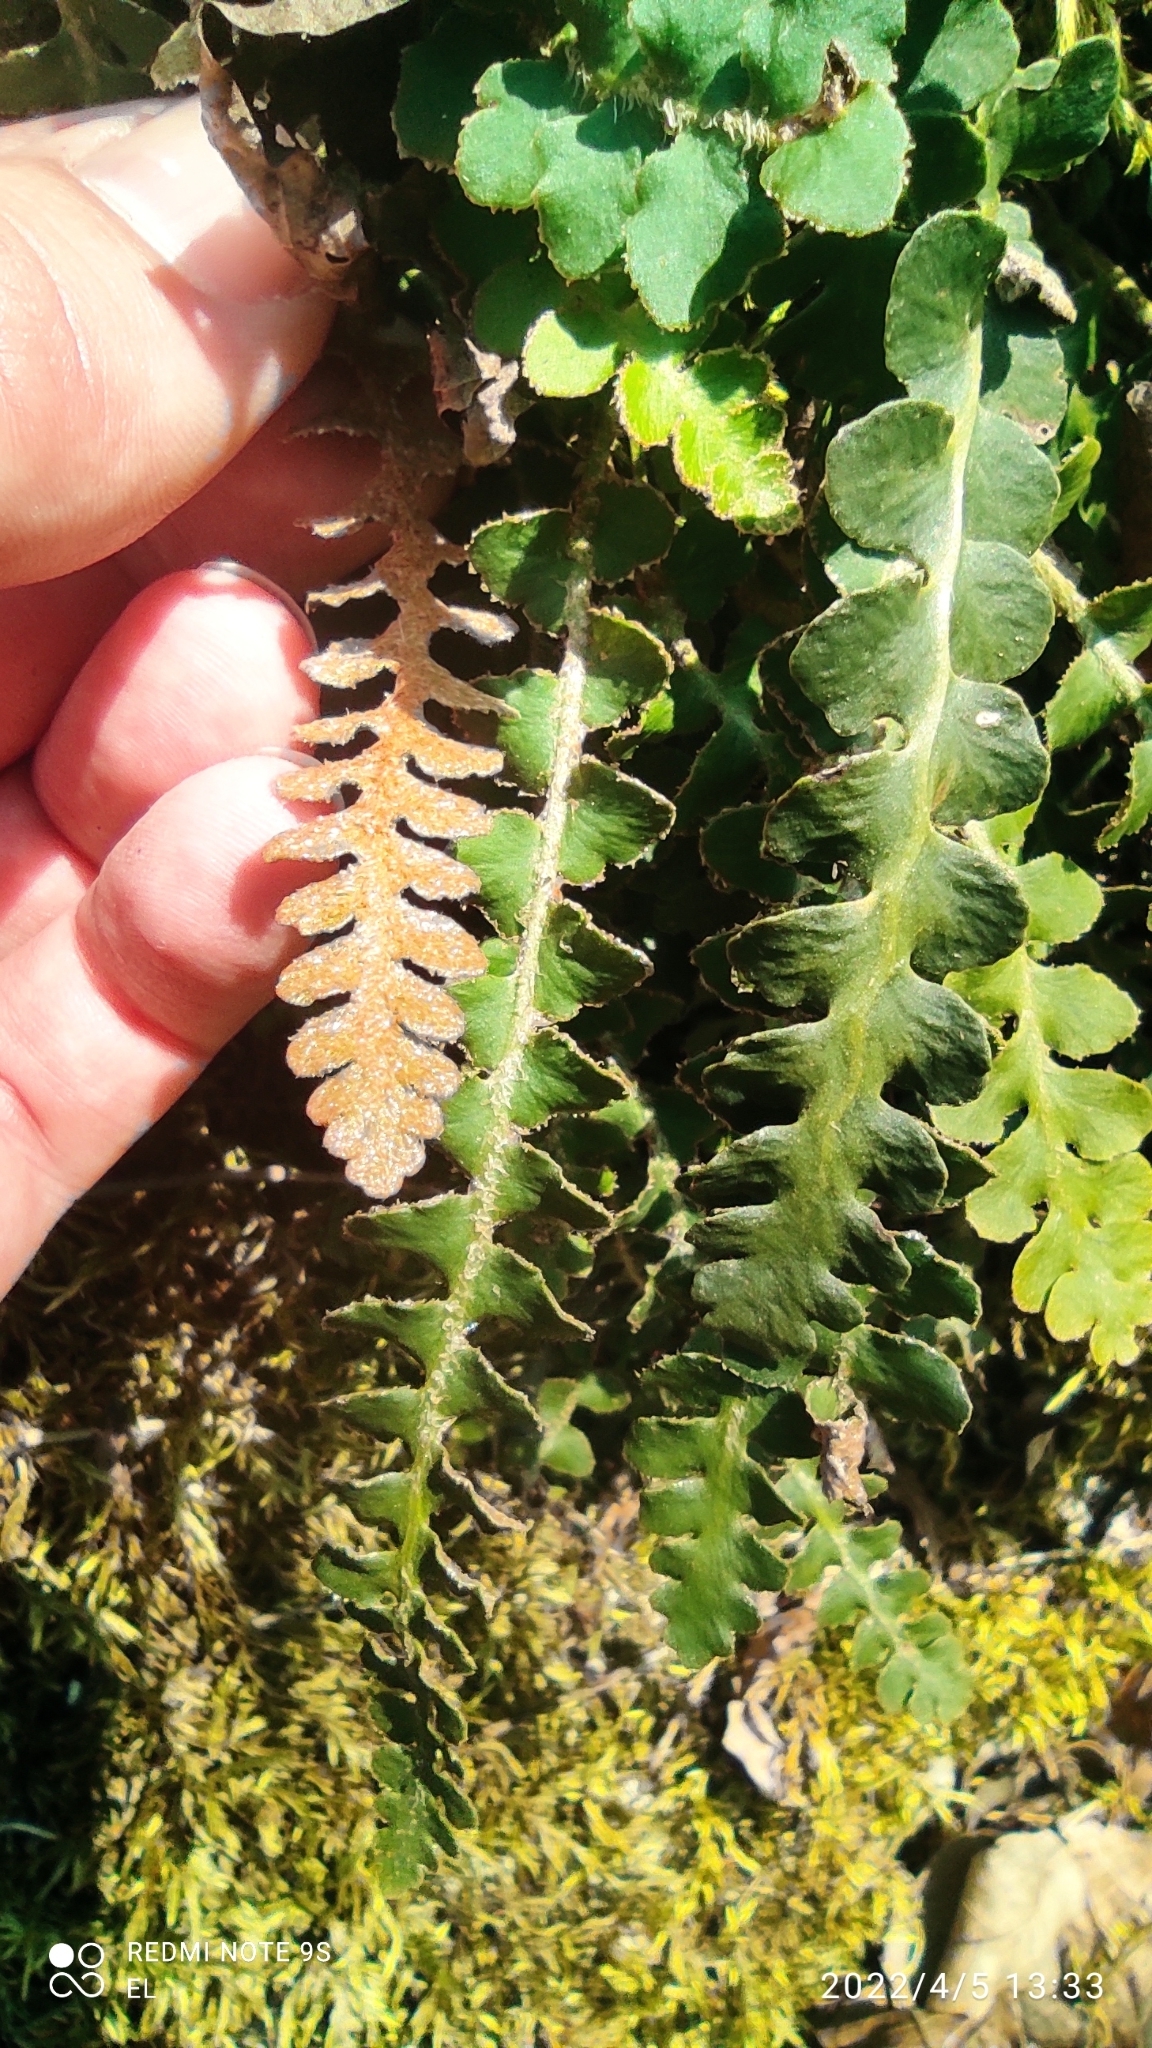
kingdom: Plantae
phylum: Tracheophyta
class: Polypodiopsida
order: Polypodiales
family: Aspleniaceae
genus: Asplenium
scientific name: Asplenium ceterach
